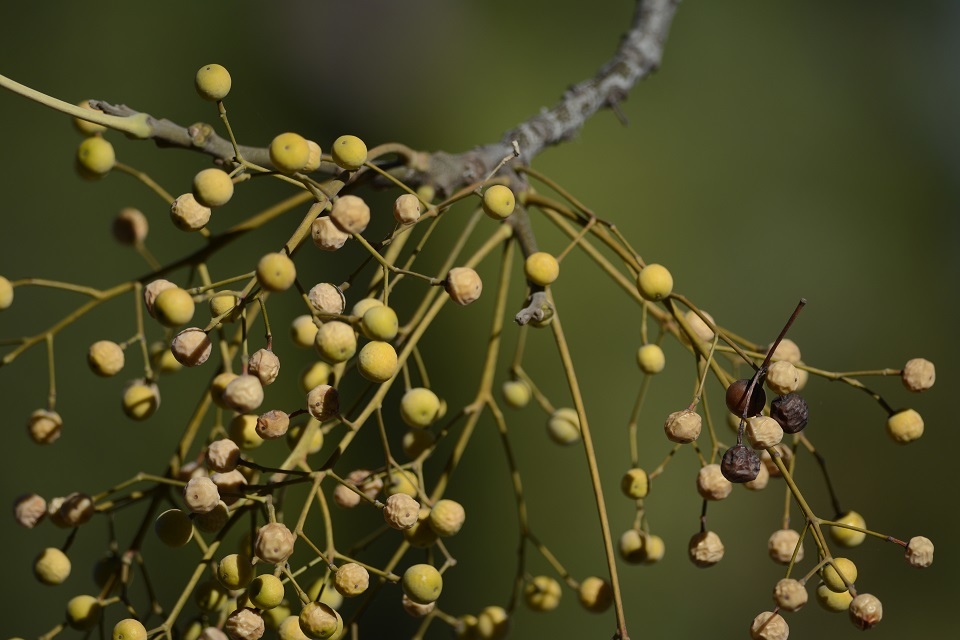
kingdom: Plantae
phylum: Tracheophyta
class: Magnoliopsida
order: Sapindales
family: Meliaceae
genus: Melia
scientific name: Melia azedarach
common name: Chinaberrytree
